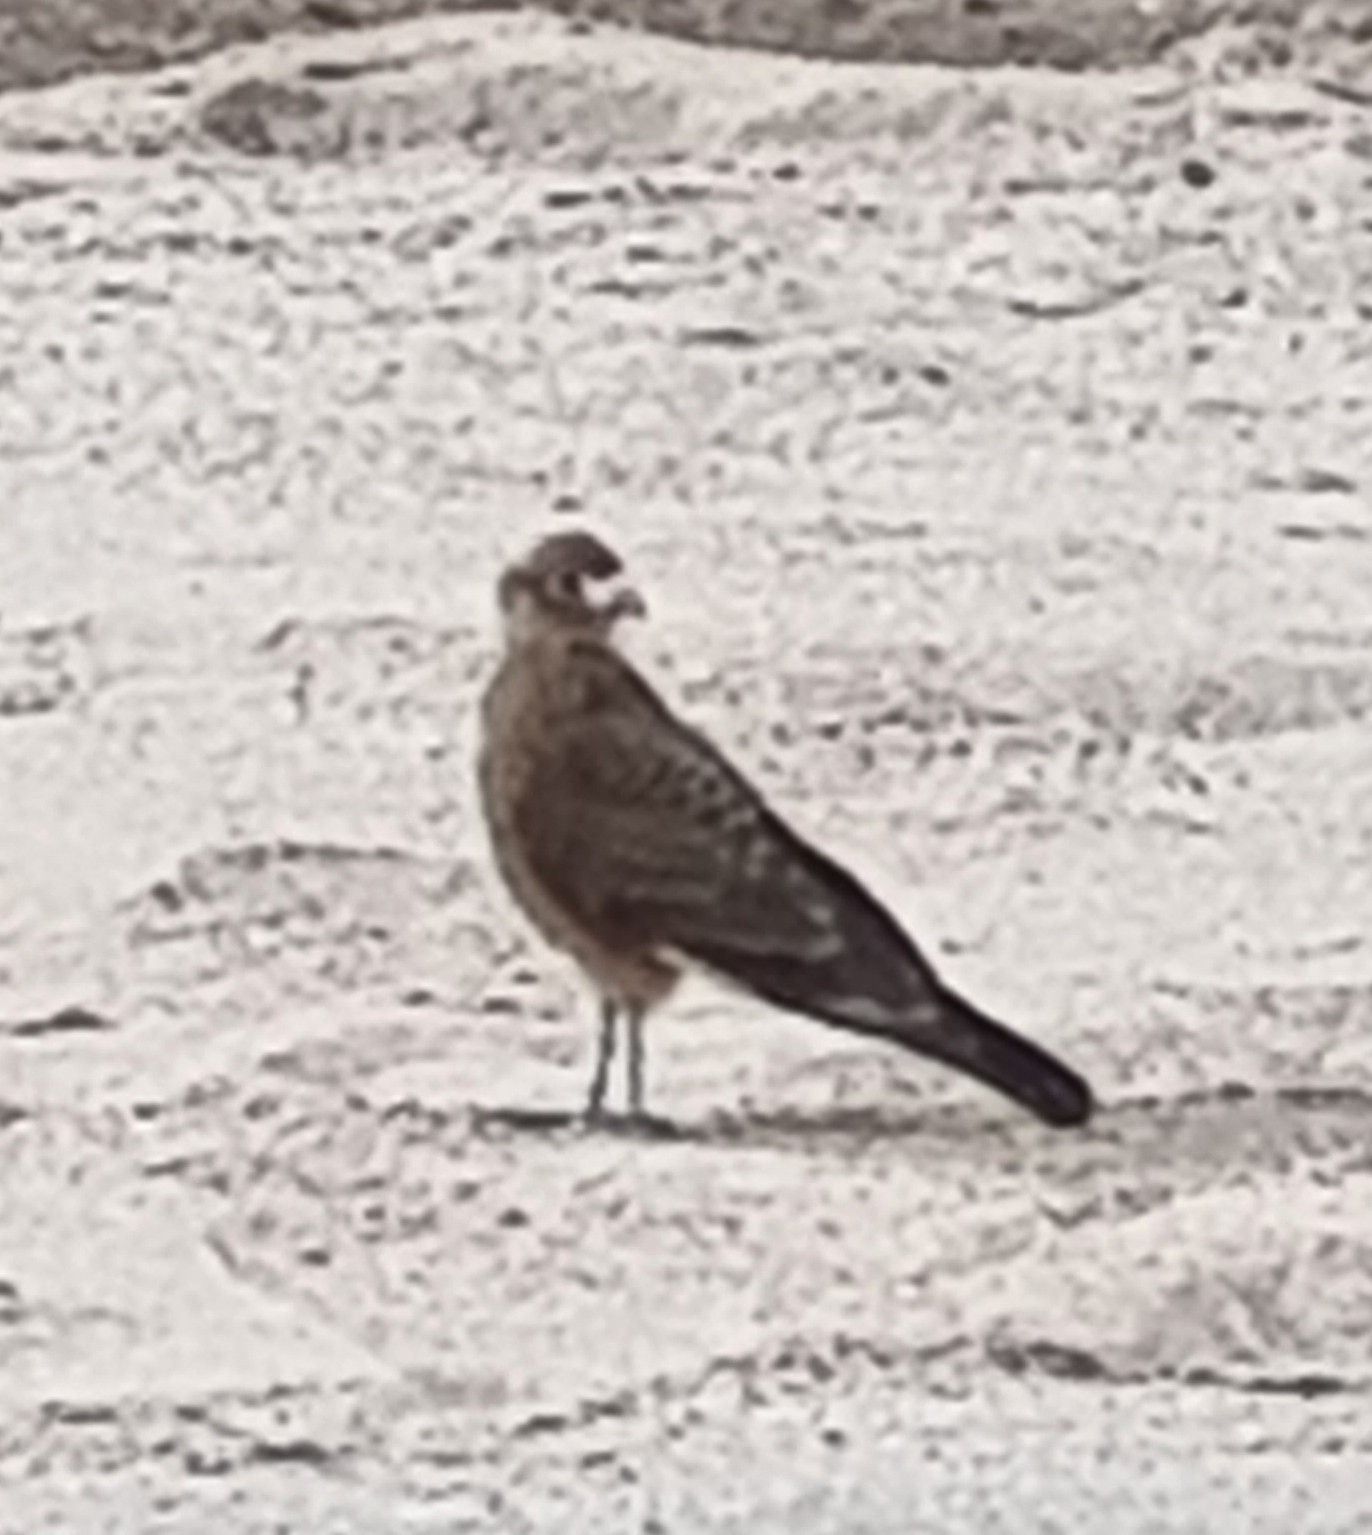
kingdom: Animalia
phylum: Chordata
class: Aves
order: Falconiformes
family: Falconidae
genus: Daptrius
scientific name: Daptrius
